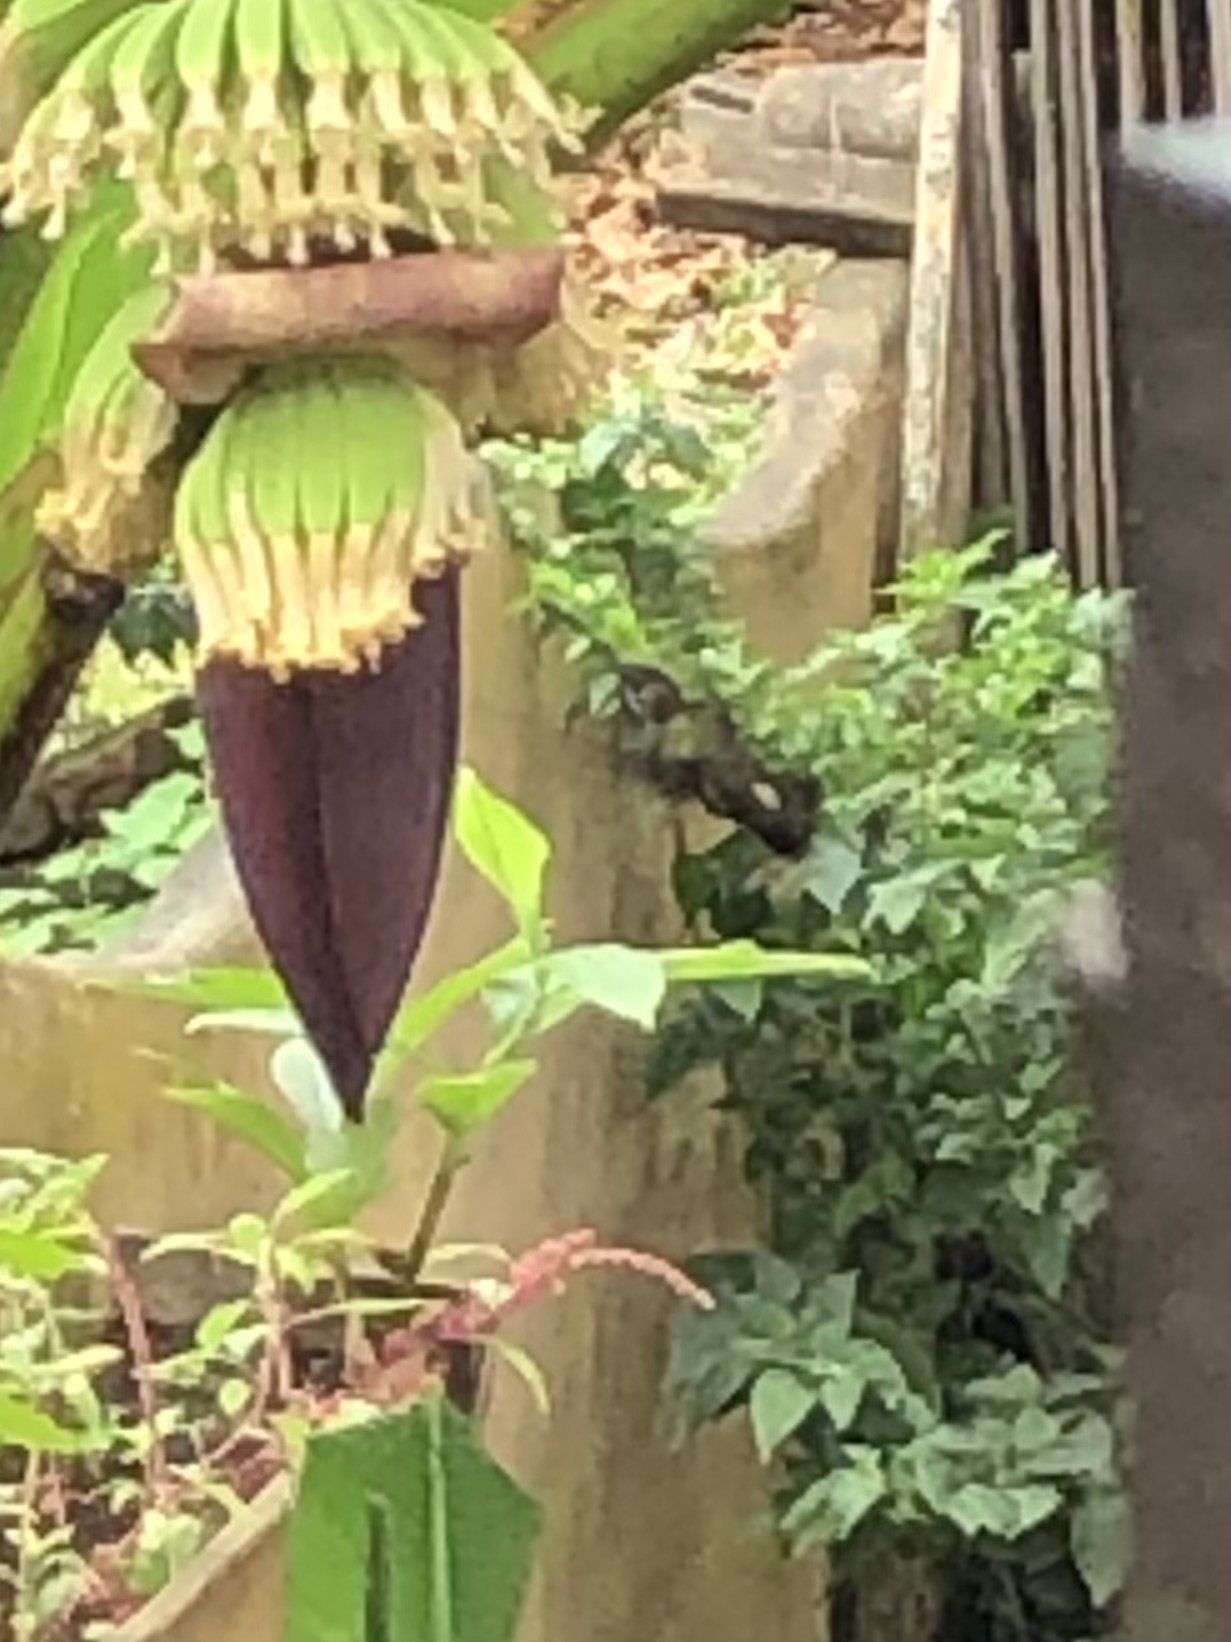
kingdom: Animalia
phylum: Chordata
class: Aves
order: Apodiformes
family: Trochilidae
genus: Heliomaster
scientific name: Heliomaster longirostris
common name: Long-billed starthroat
